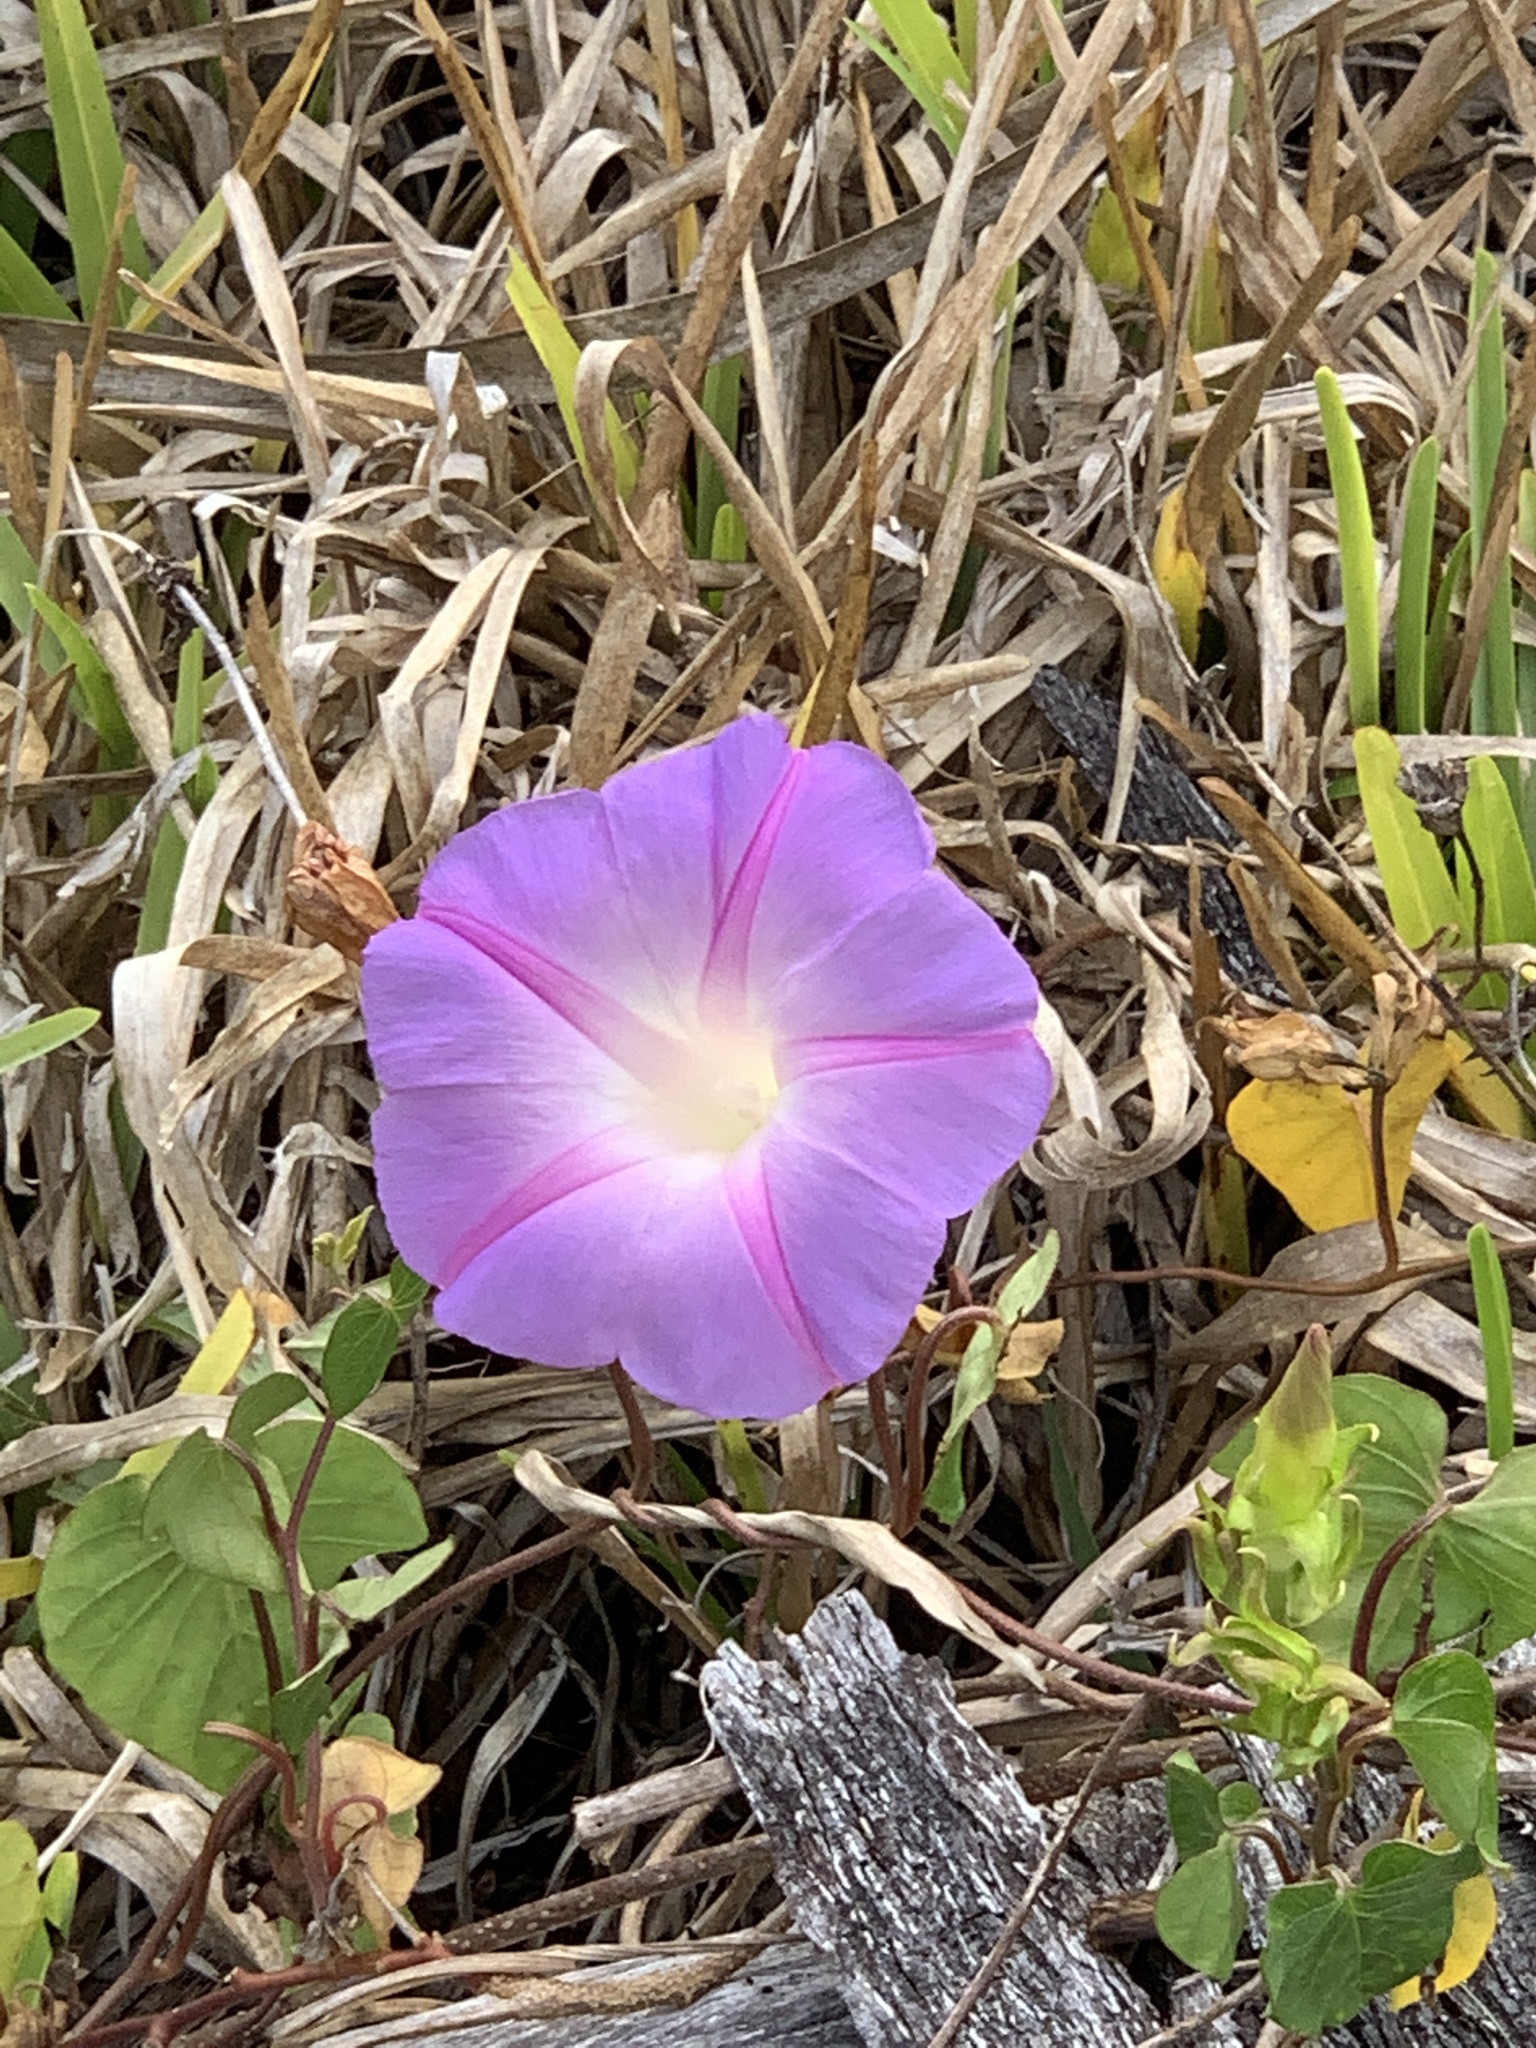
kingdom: Plantae
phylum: Tracheophyta
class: Magnoliopsida
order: Solanales
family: Convolvulaceae
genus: Ipomoea
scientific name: Ipomoea indica
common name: Blue dawnflower
